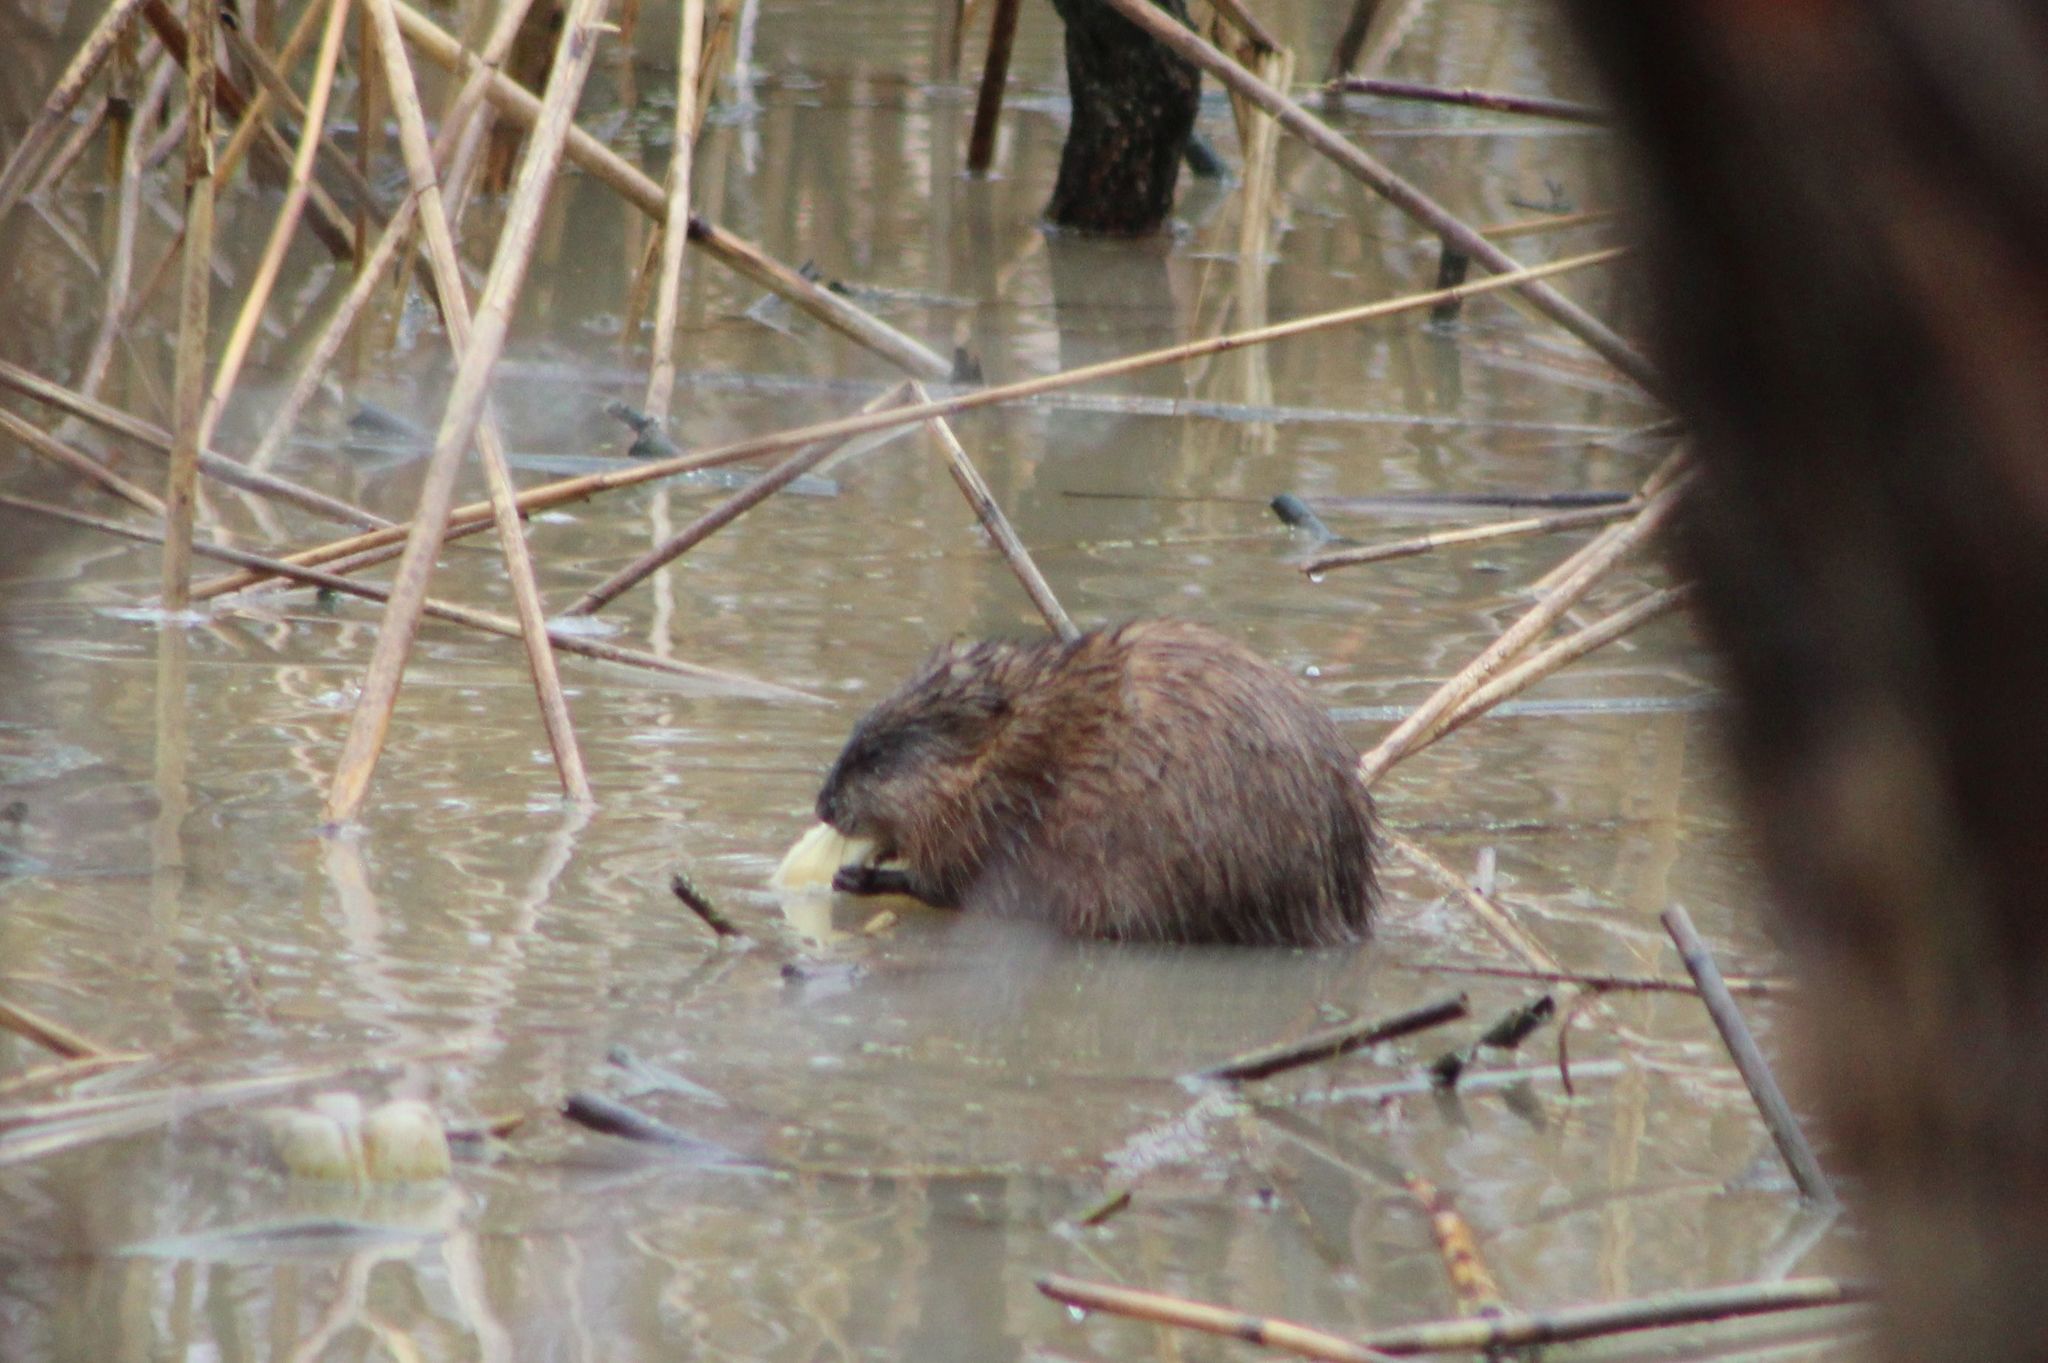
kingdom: Animalia
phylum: Chordata
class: Mammalia
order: Rodentia
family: Cricetidae
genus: Ondatra
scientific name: Ondatra zibethicus
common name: Muskrat
